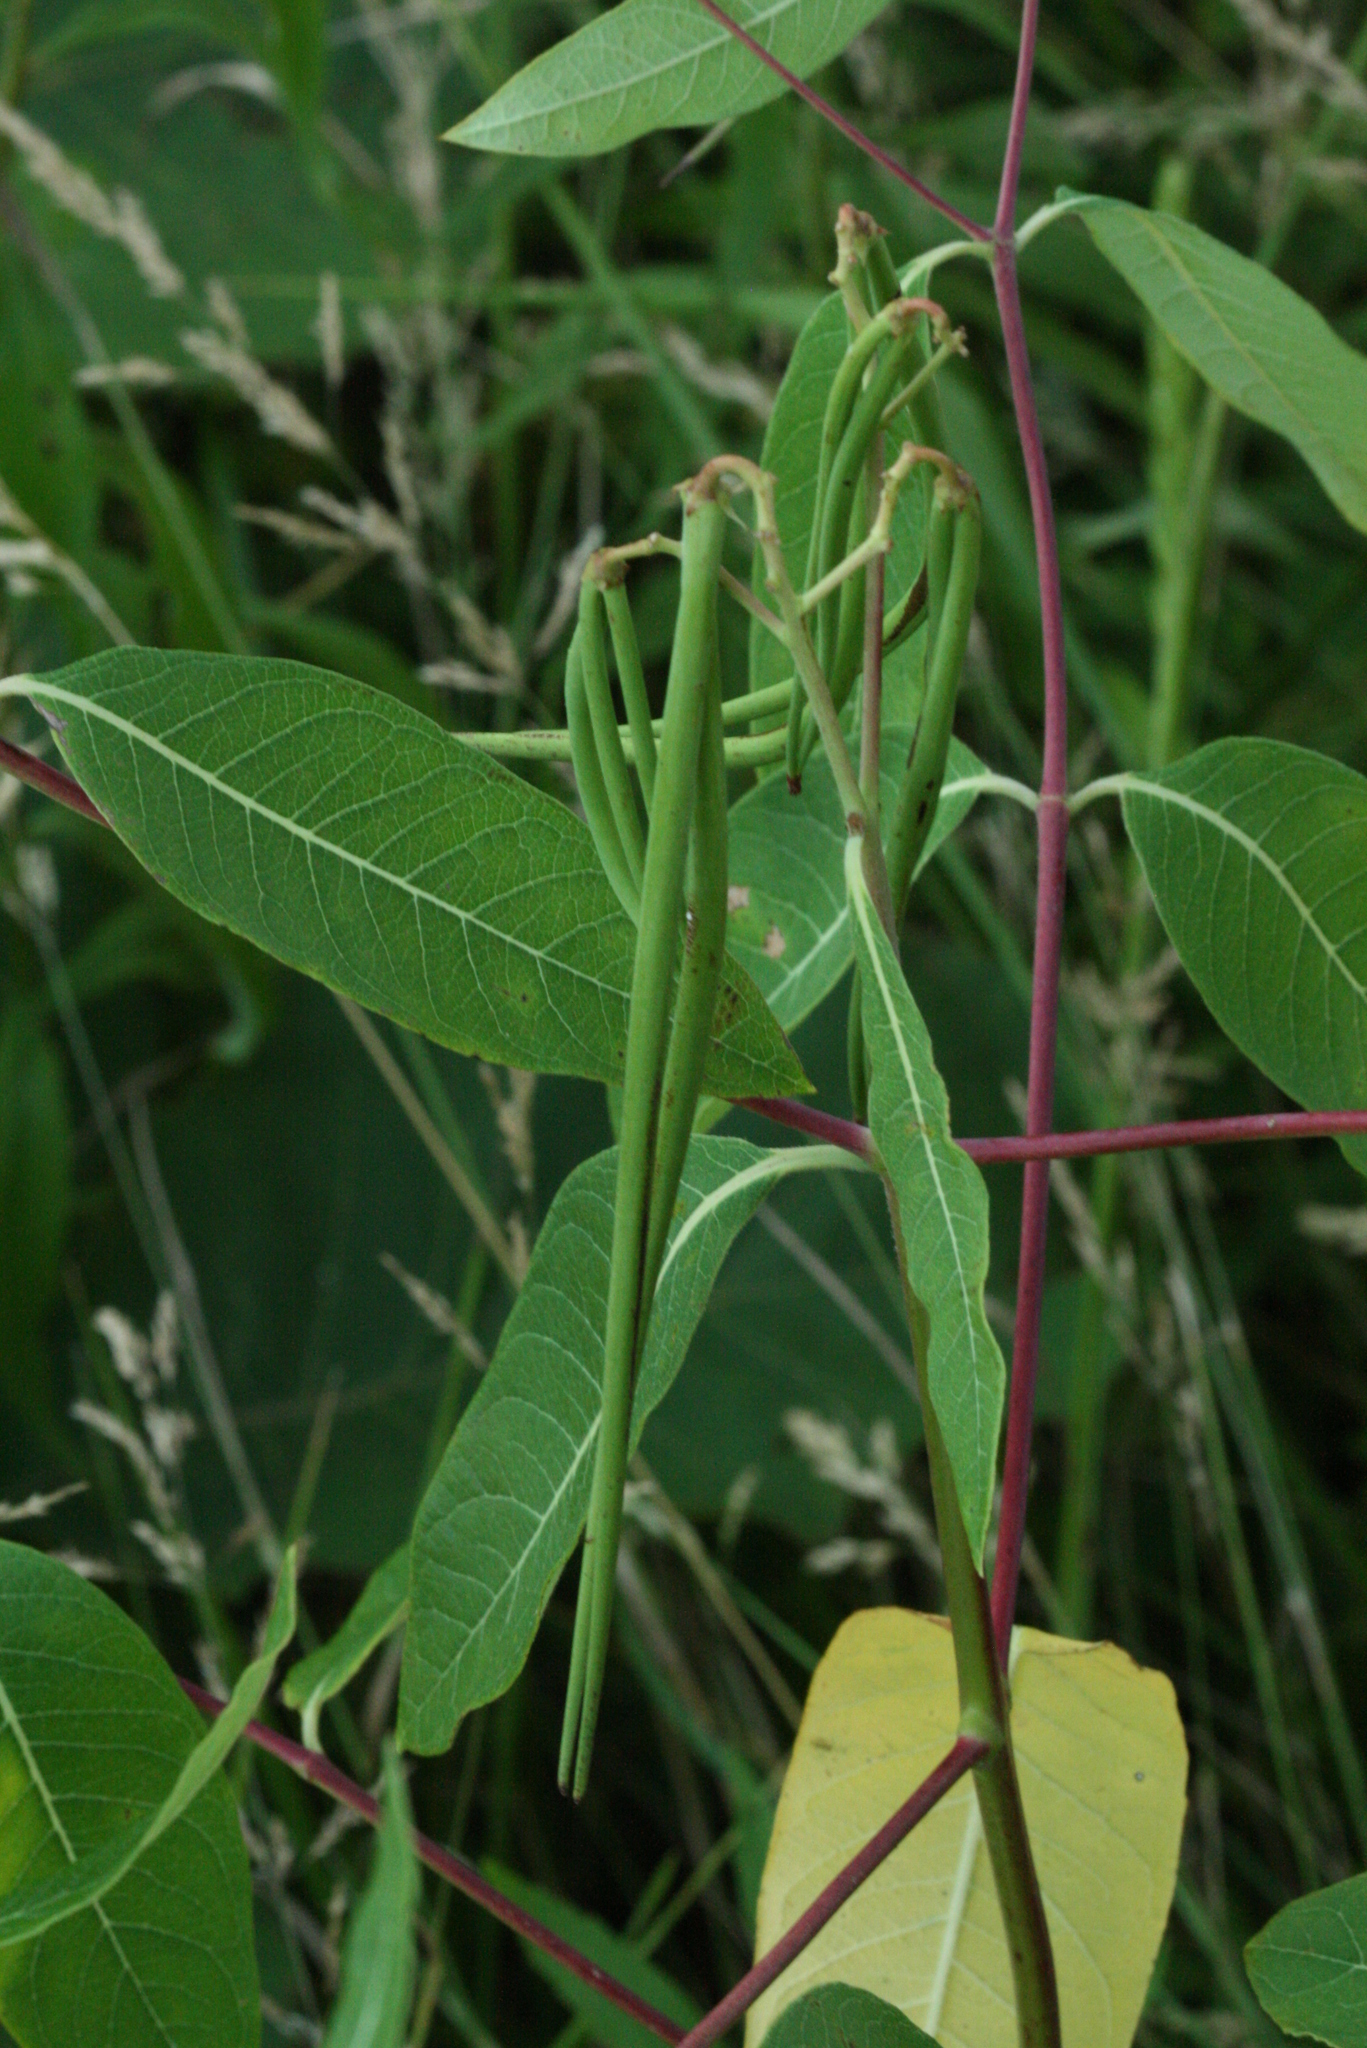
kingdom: Plantae
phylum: Tracheophyta
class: Magnoliopsida
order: Gentianales
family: Apocynaceae
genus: Apocynum
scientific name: Apocynum androsaemifolium
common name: Spreading dogbane
